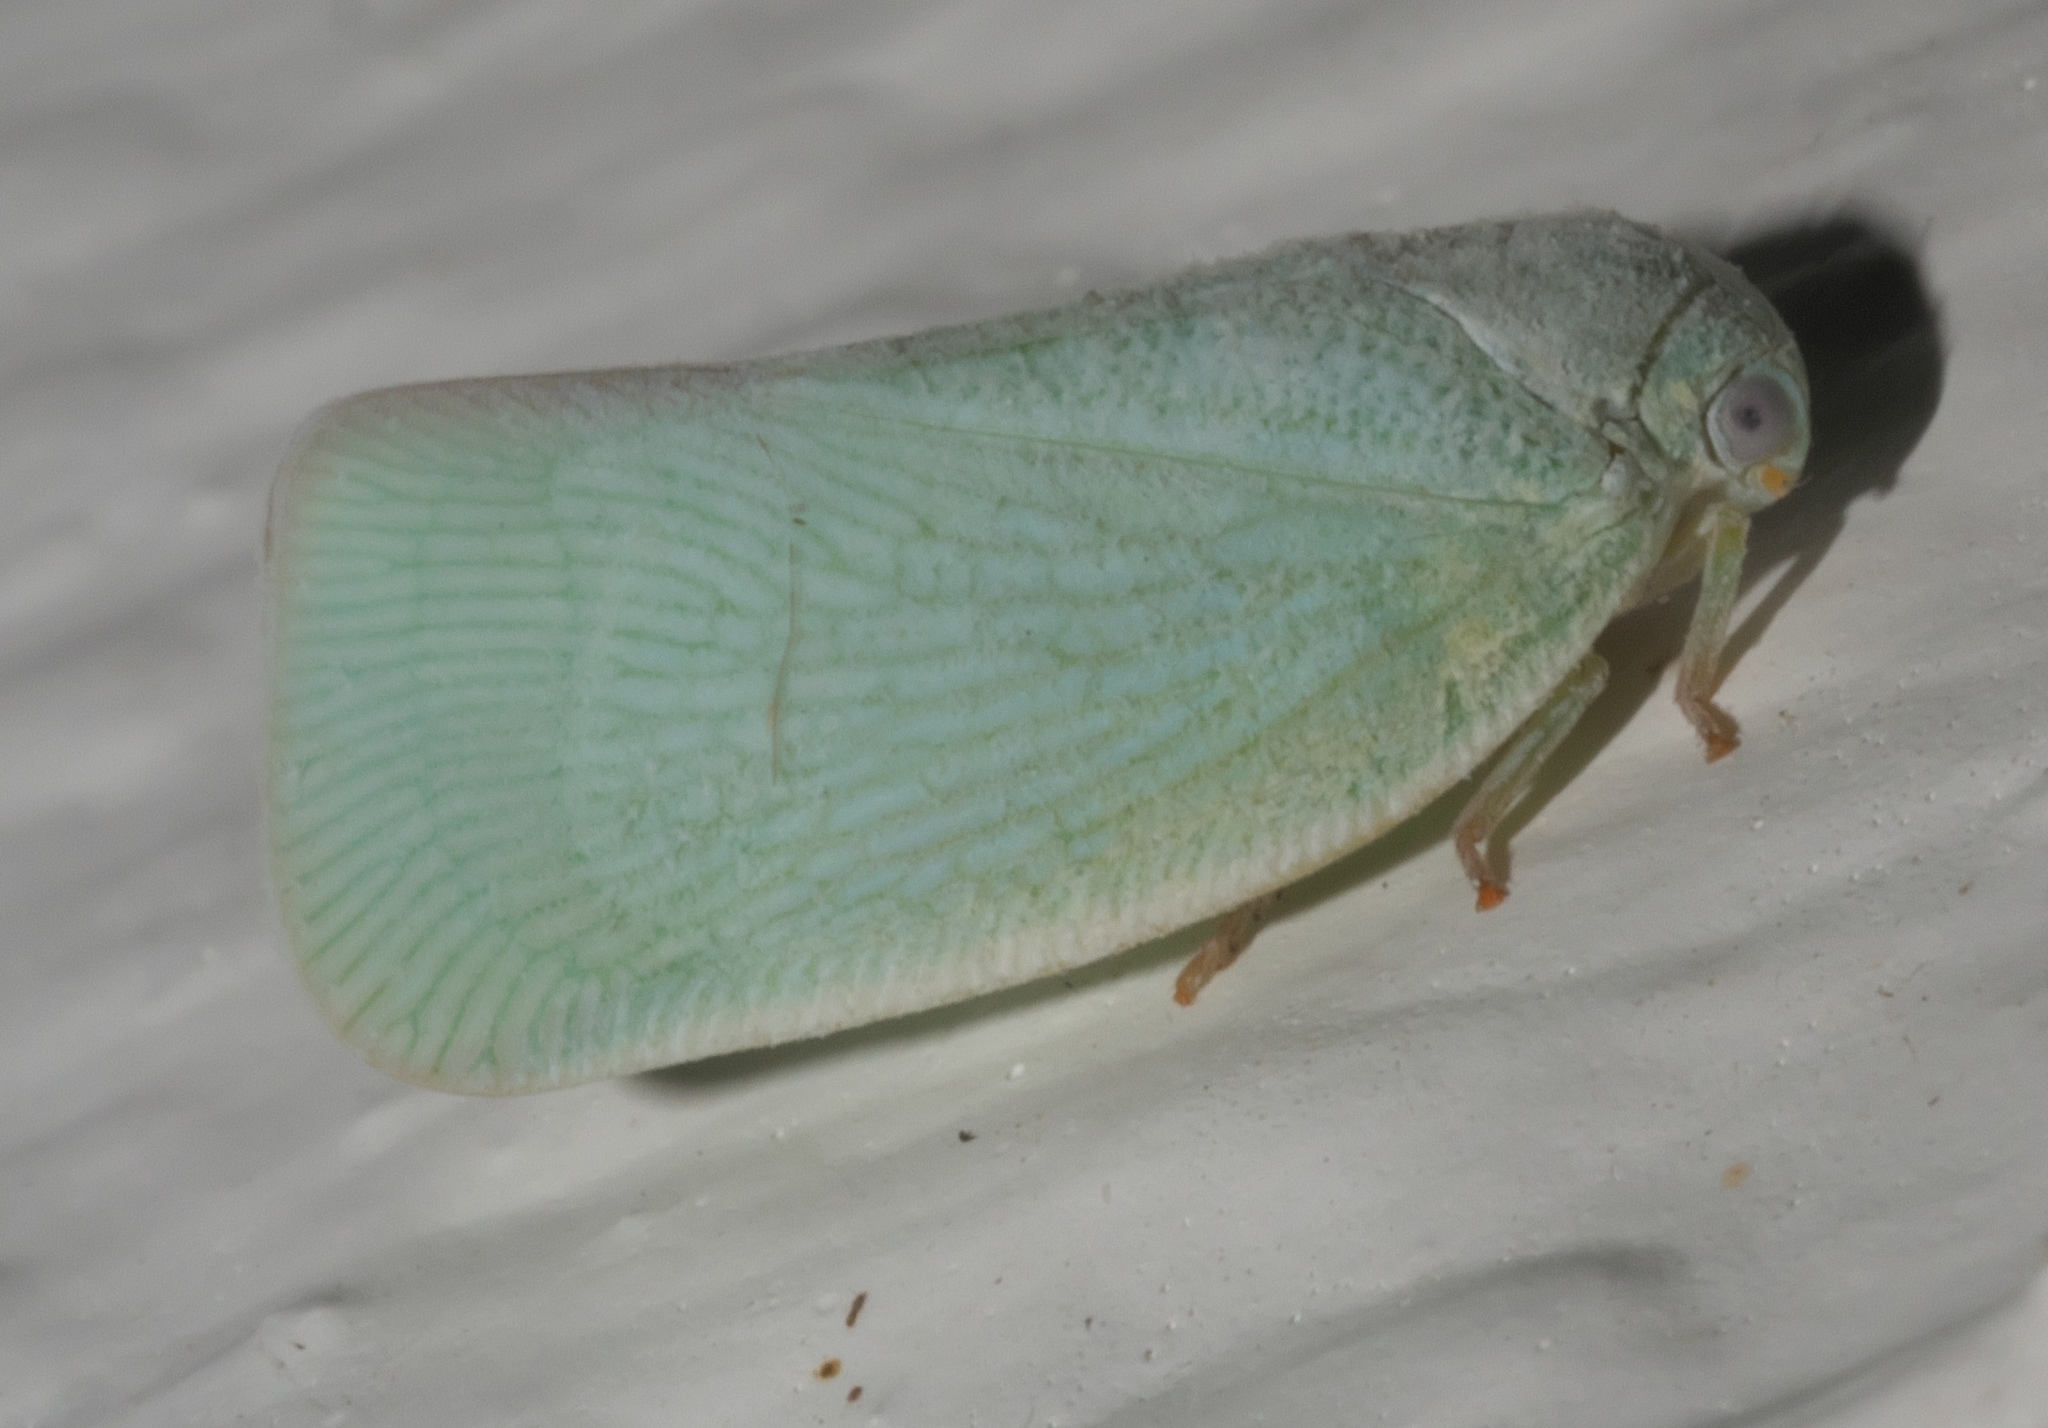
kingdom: Animalia
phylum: Arthropoda
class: Insecta
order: Hemiptera
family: Flatidae
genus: Flatormenis
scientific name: Flatormenis proxima
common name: Northern flatid planthopper
